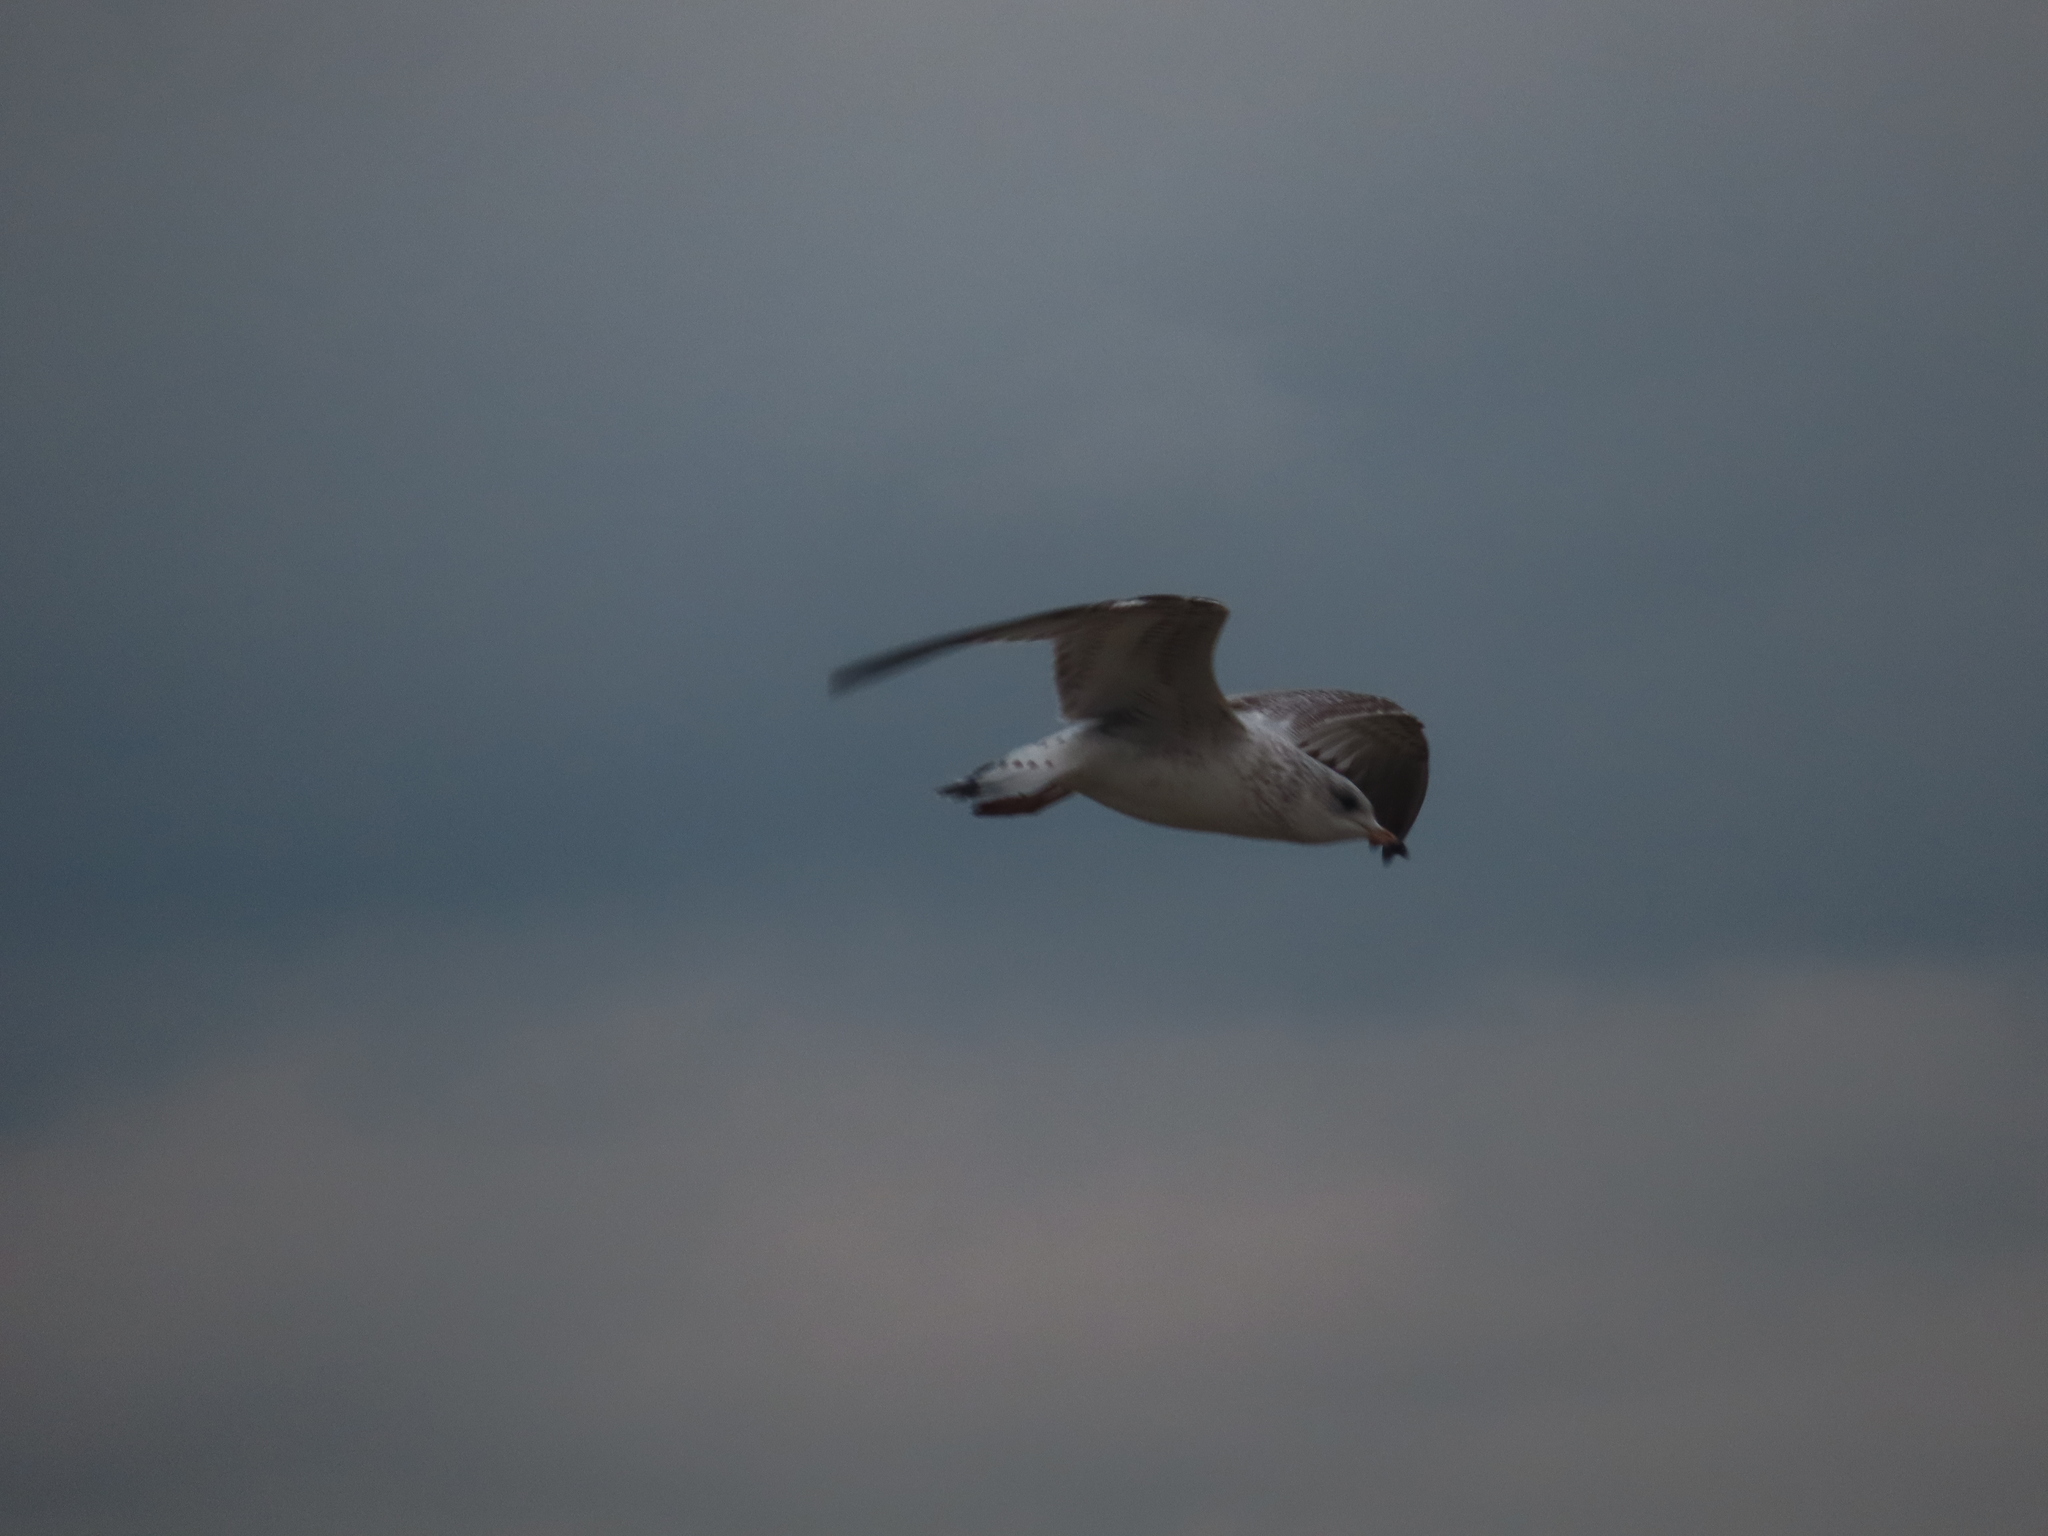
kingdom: Animalia
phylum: Chordata
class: Aves
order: Charadriiformes
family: Laridae
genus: Larus
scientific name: Larus delawarensis
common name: Ring-billed gull
